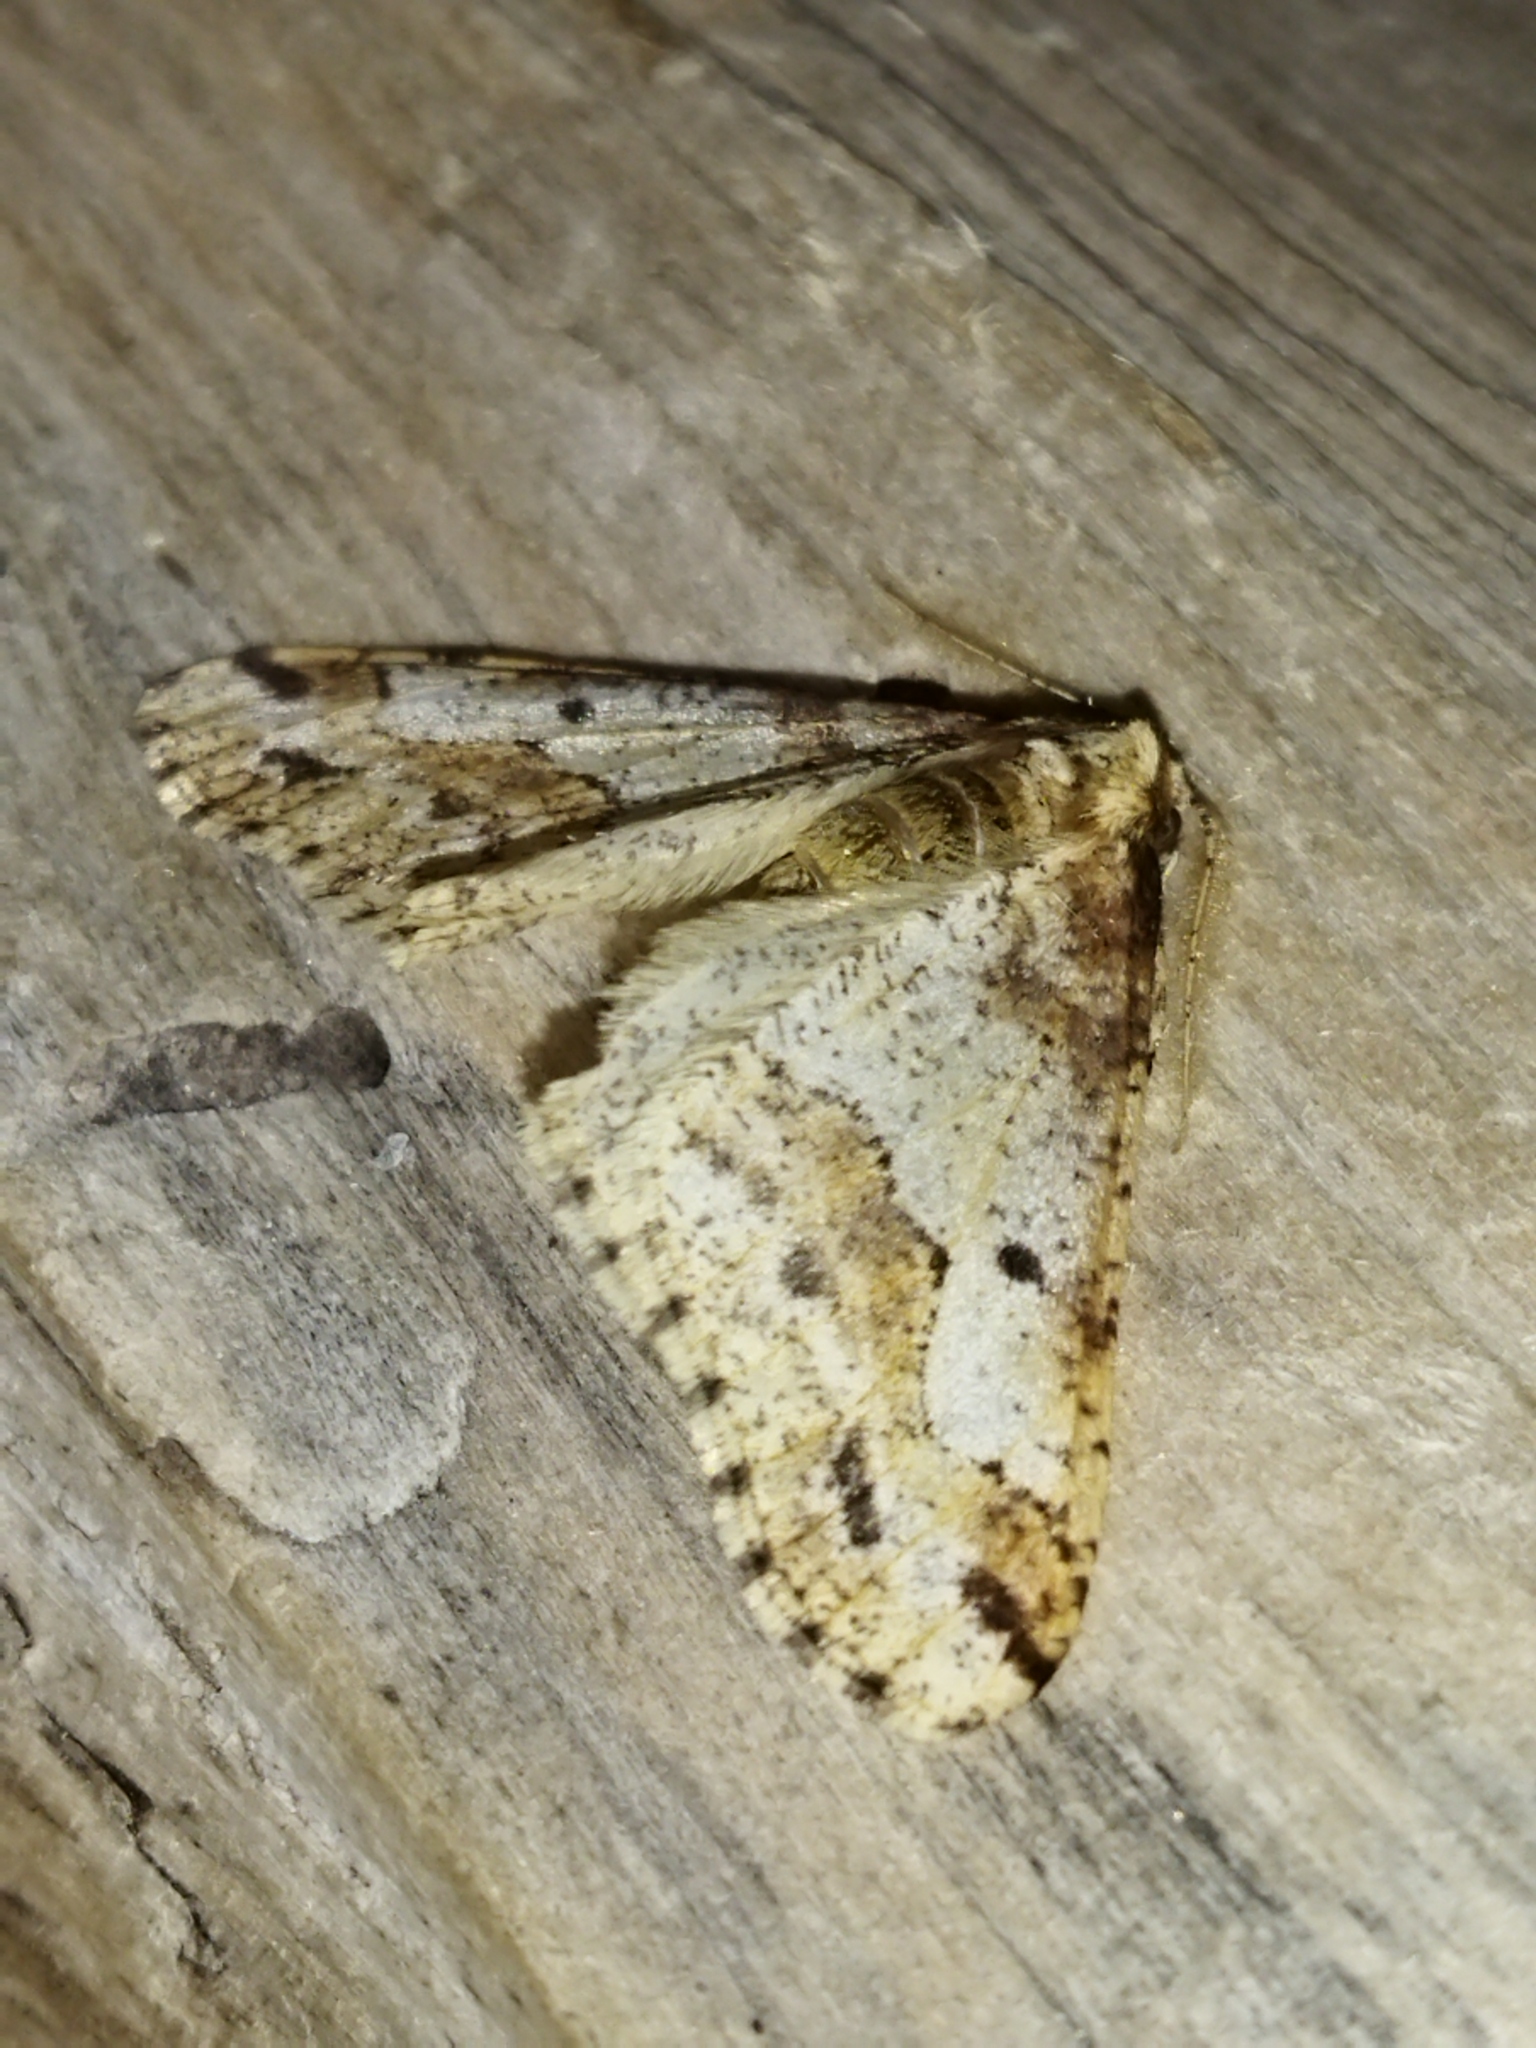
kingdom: Animalia
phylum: Arthropoda
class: Insecta
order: Lepidoptera
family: Geometridae
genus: Erannis
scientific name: Erannis defoliaria
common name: Mottled umber
